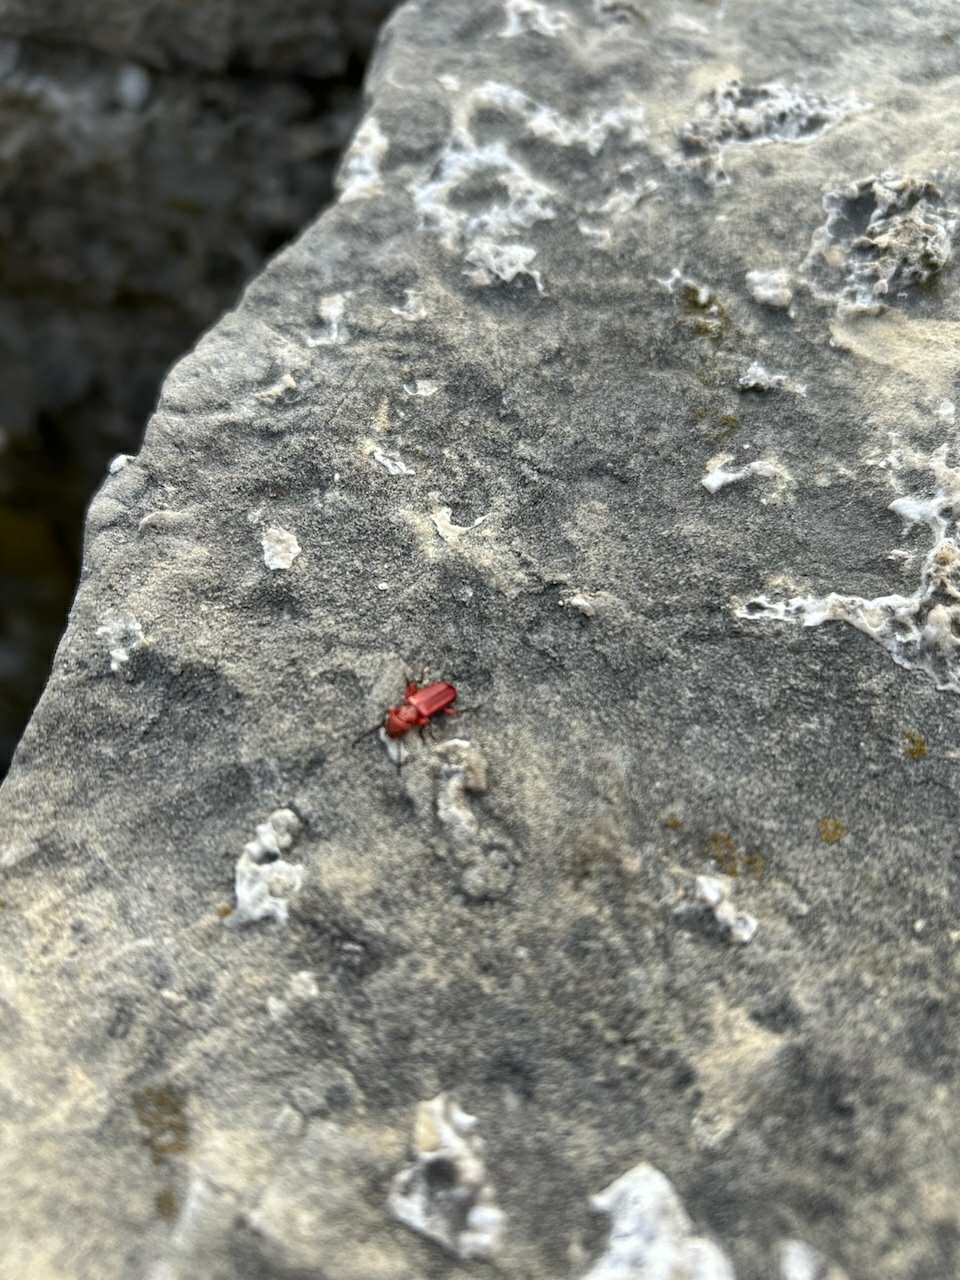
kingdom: Animalia
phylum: Arthropoda
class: Insecta
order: Coleoptera
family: Cucujidae
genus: Cucujus
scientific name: Cucujus clavipes
